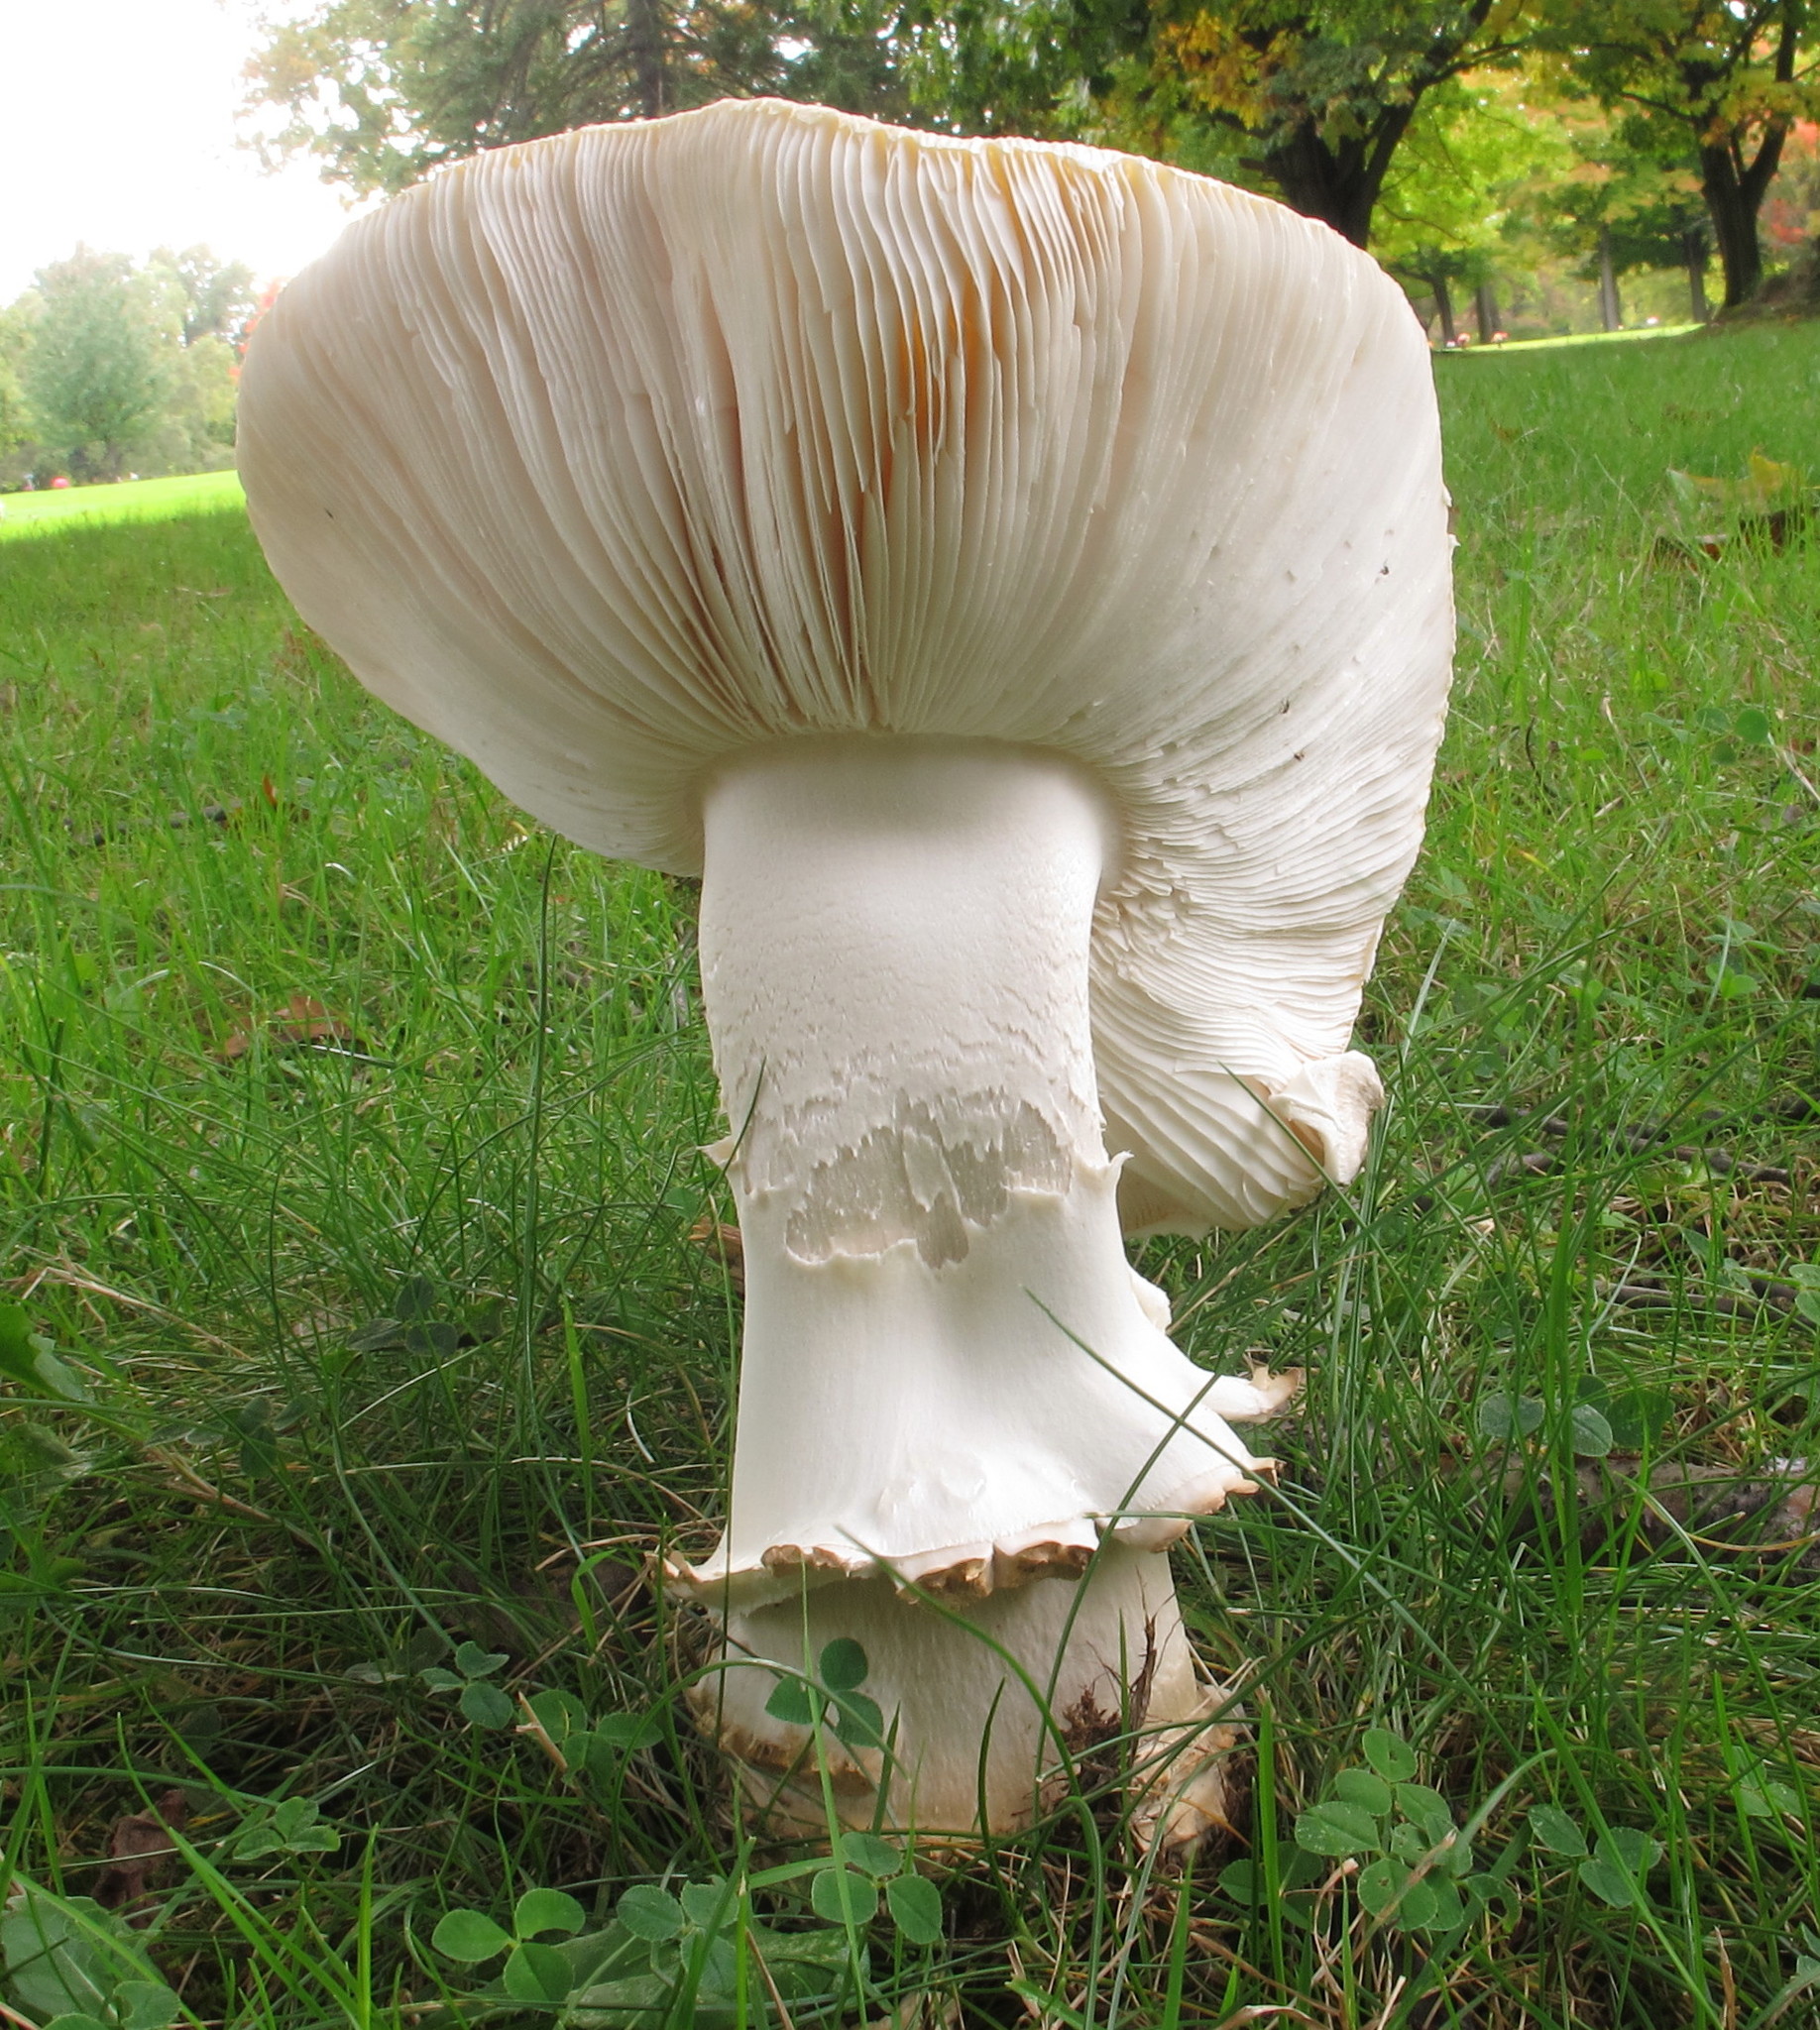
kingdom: Fungi
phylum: Basidiomycota
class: Agaricomycetes
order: Agaricales
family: Amanitaceae
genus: Amanita
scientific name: Amanita velatipes
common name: Great funnel-veil amanita
